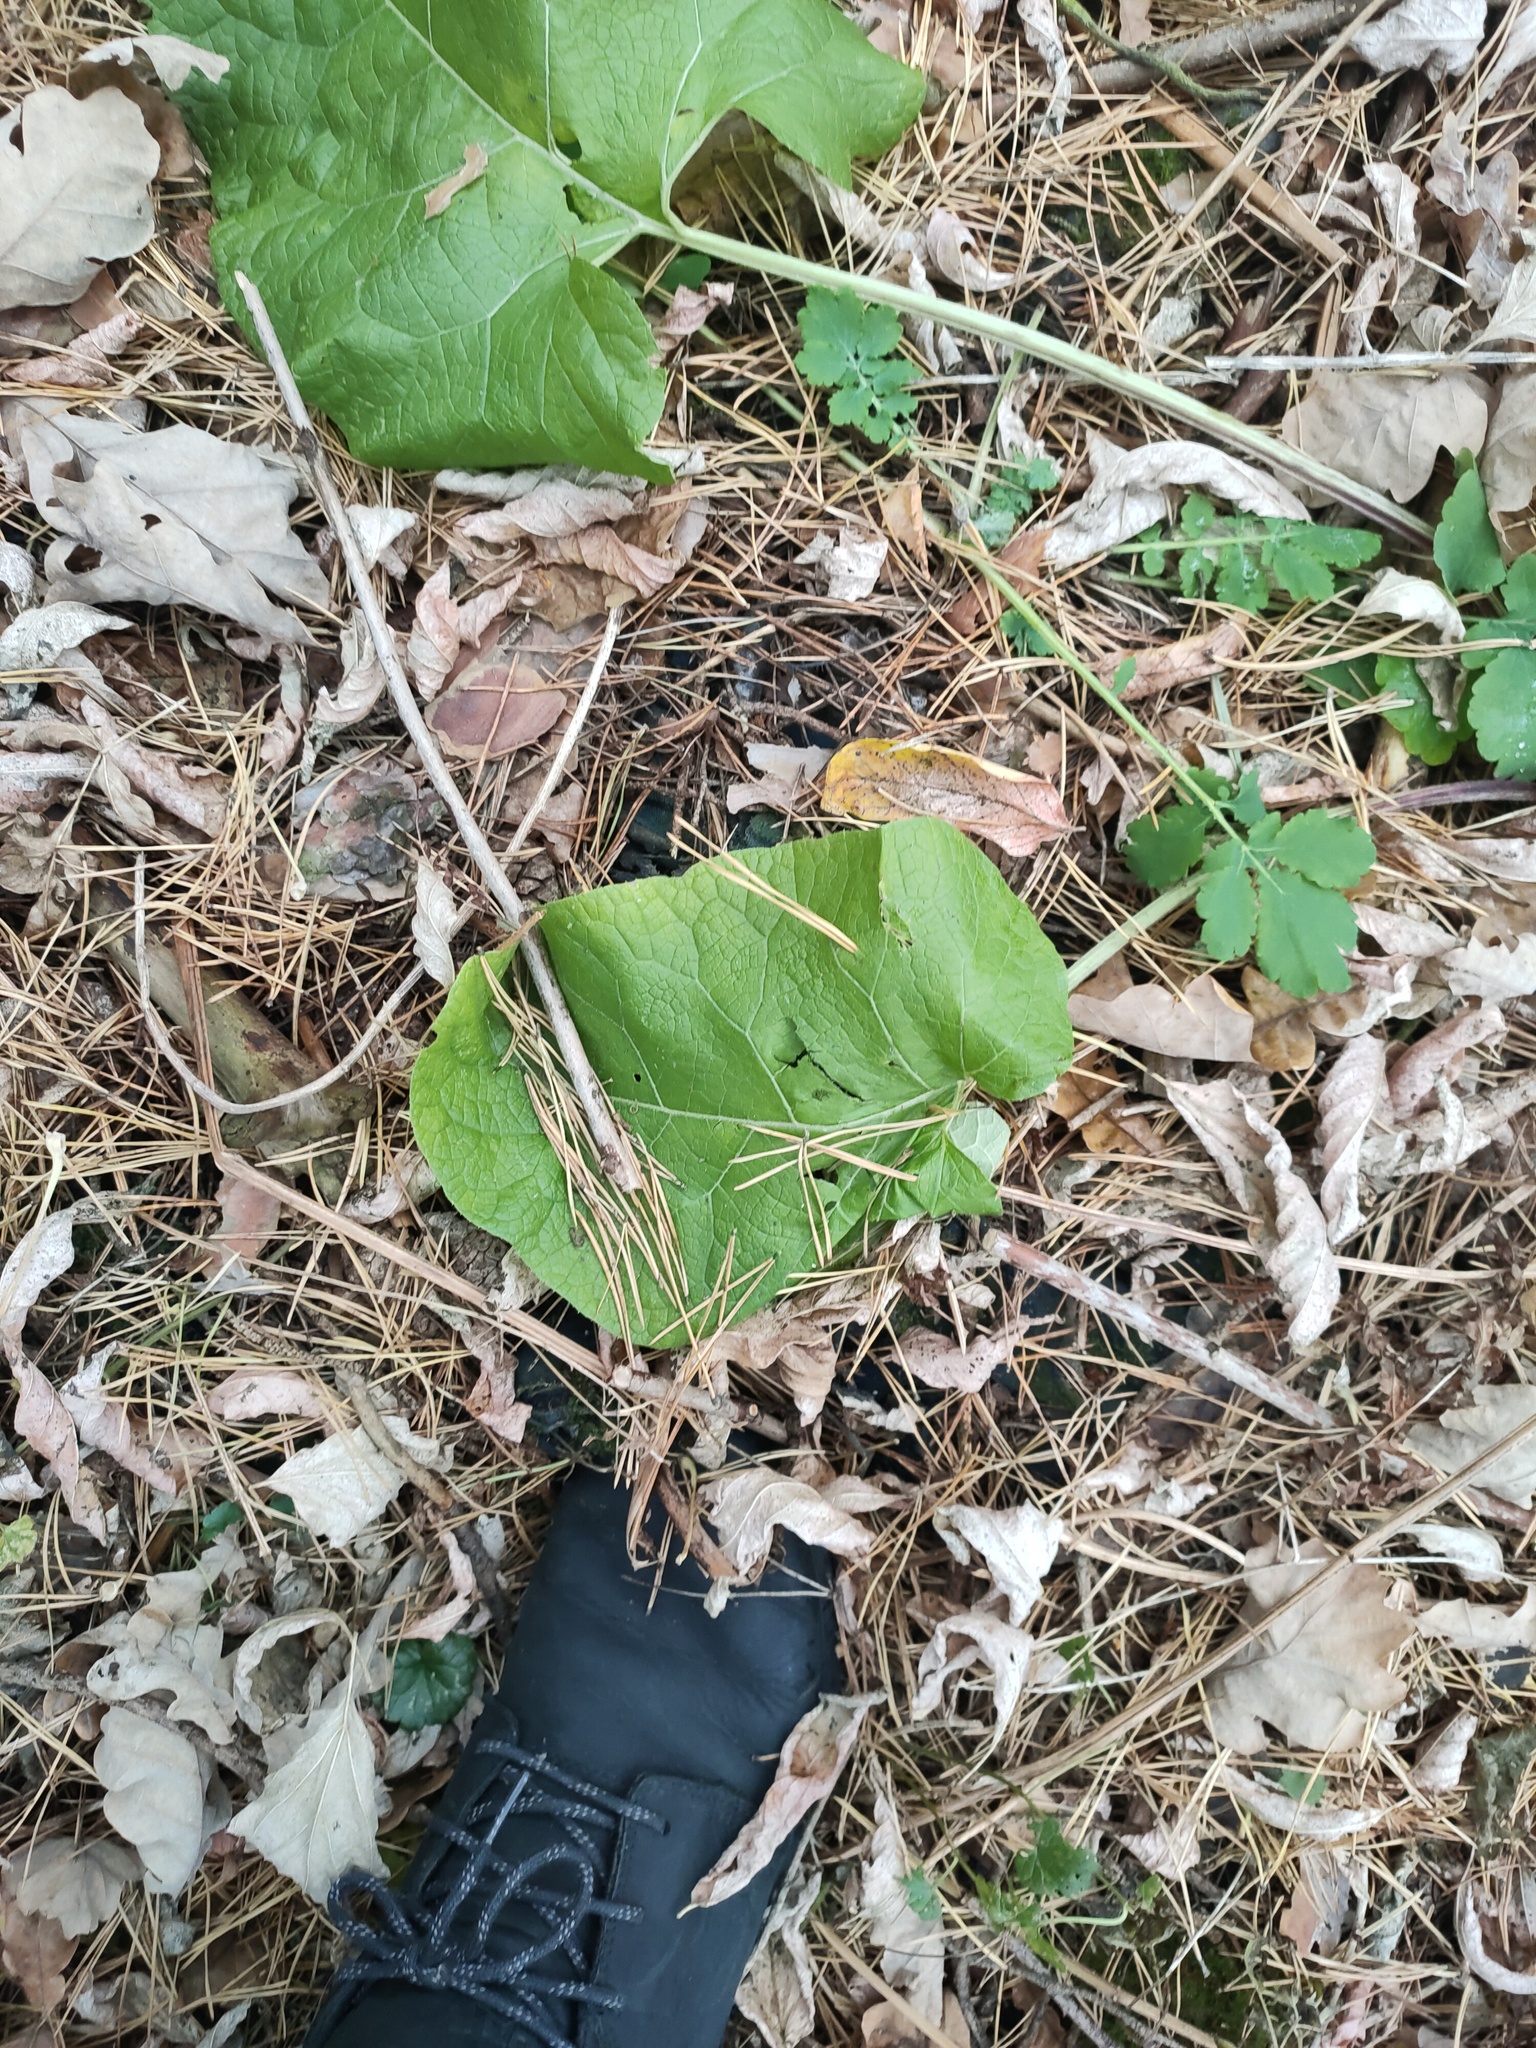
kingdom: Plantae
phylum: Tracheophyta
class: Magnoliopsida
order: Asterales
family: Asteraceae
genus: Arctium
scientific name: Arctium
